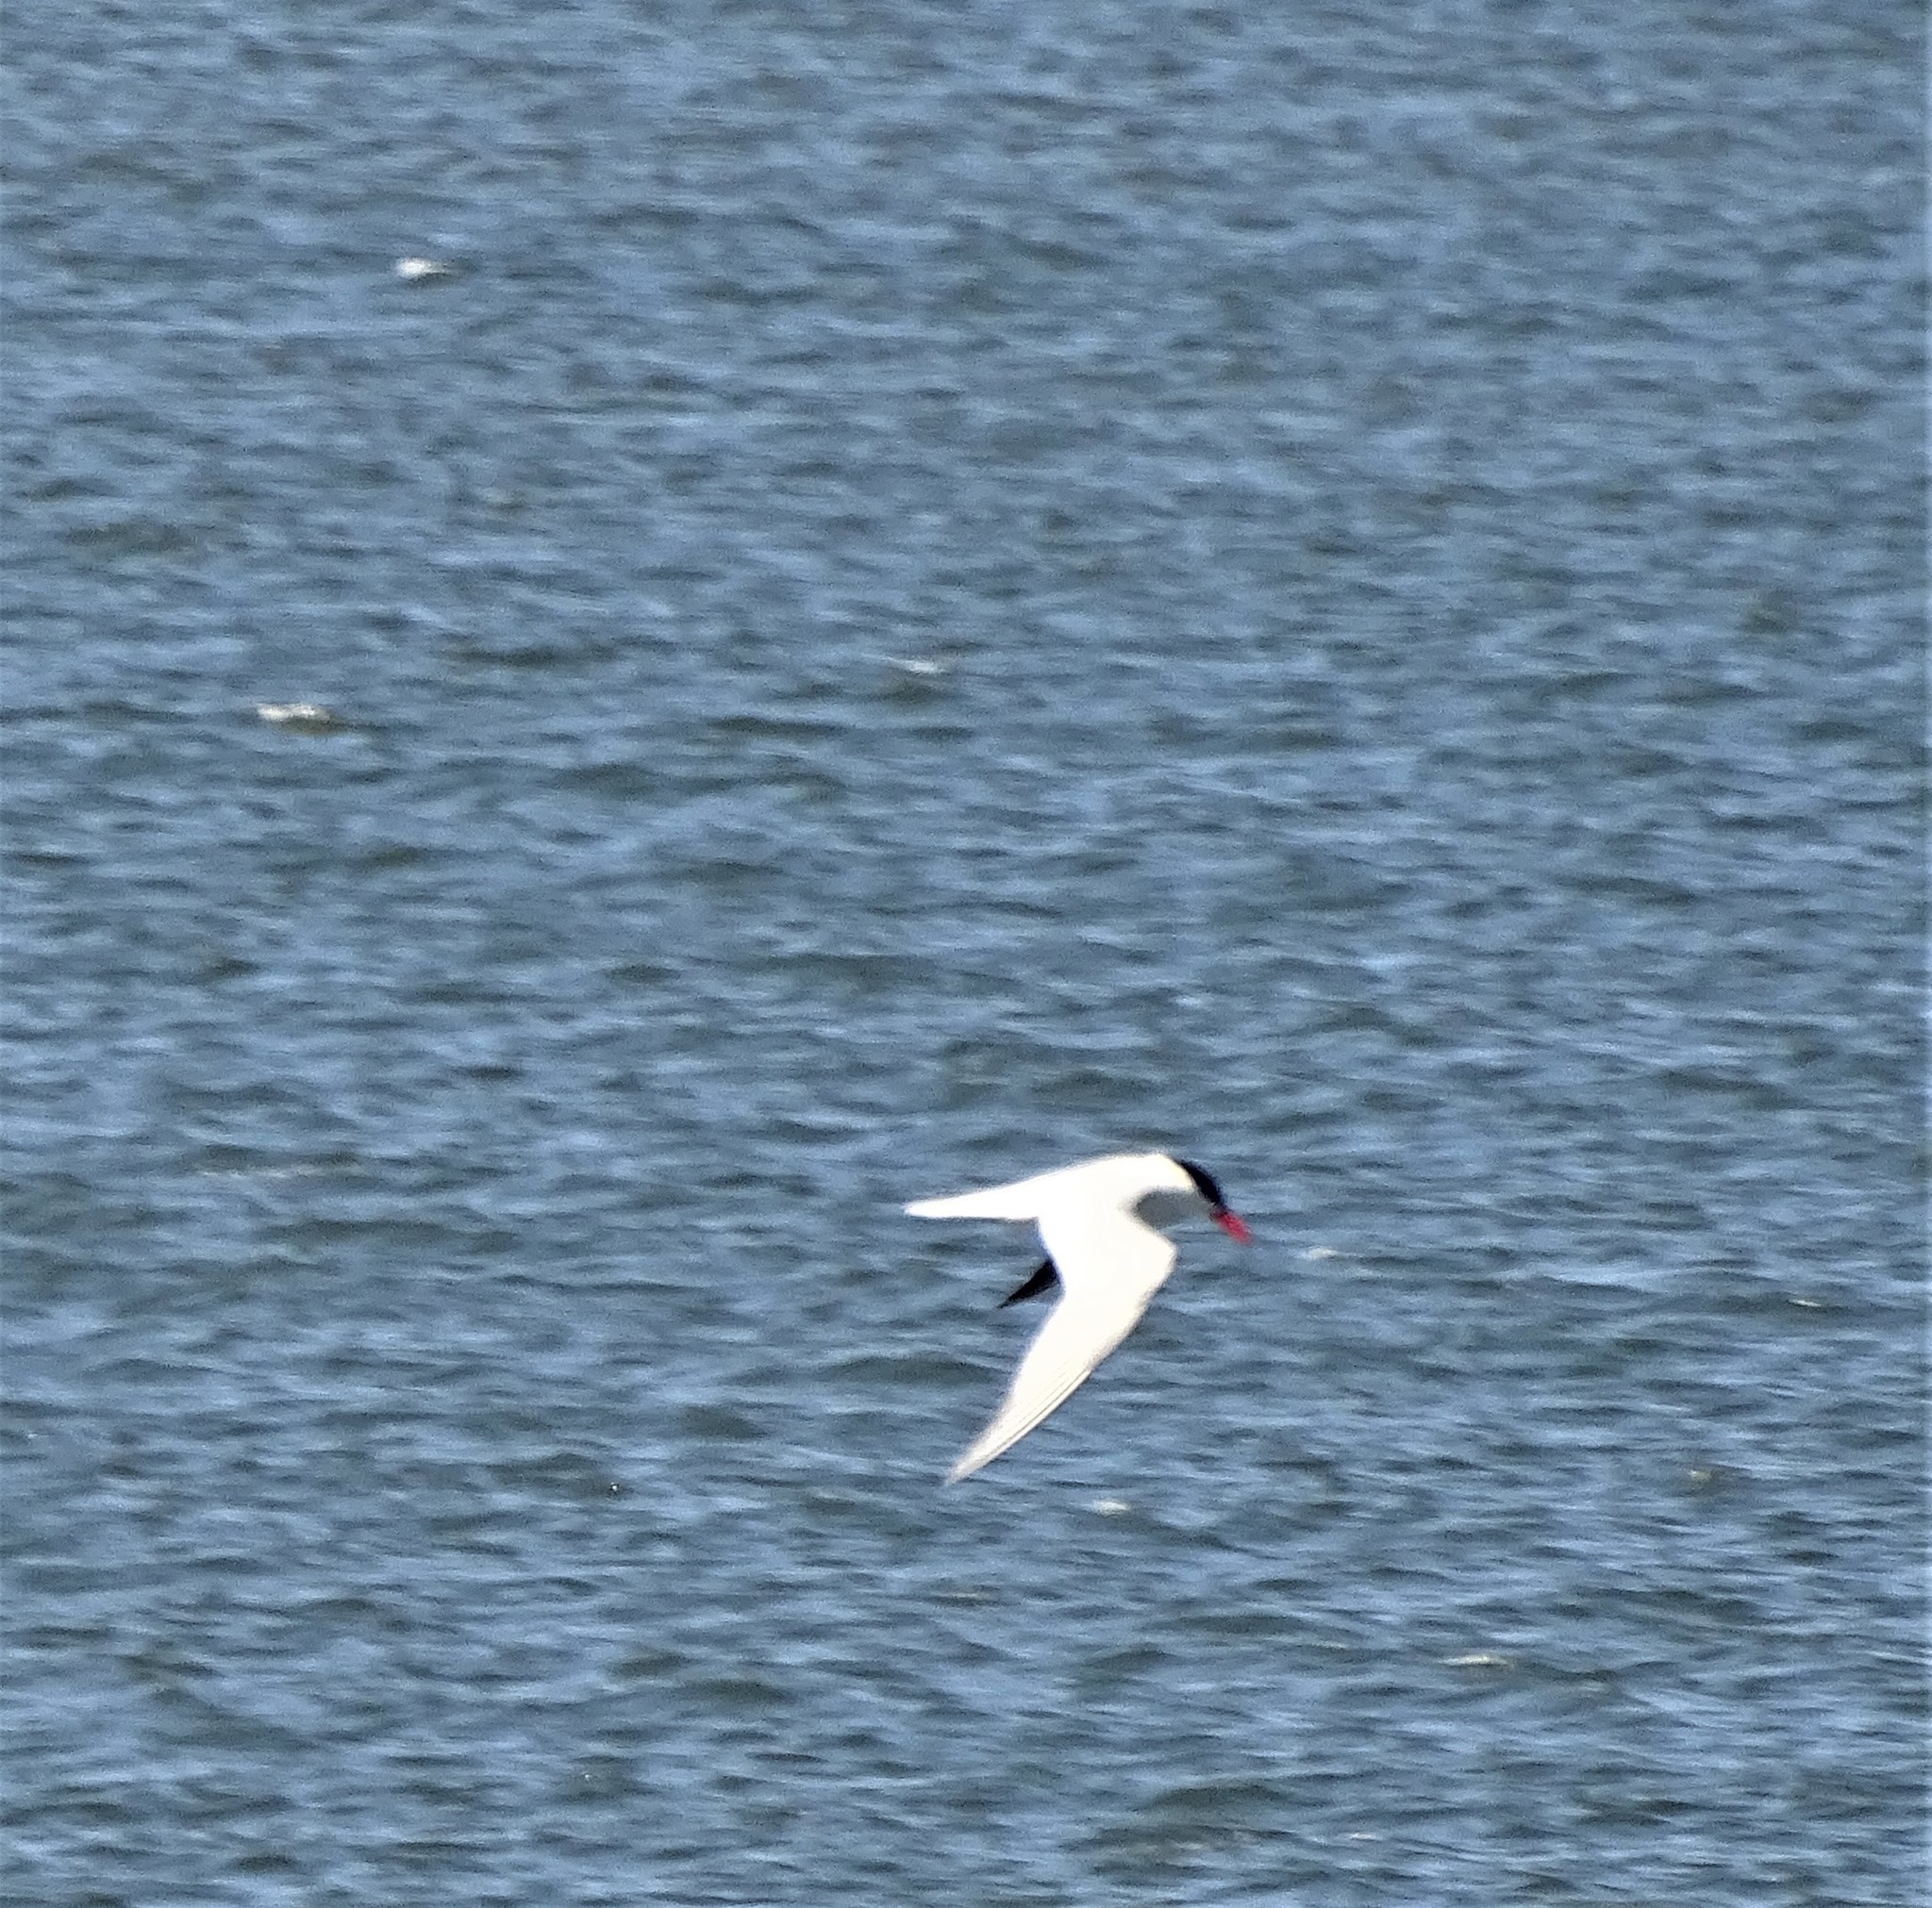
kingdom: Animalia
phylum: Chordata
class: Aves
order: Charadriiformes
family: Laridae
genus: Hydroprogne
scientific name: Hydroprogne caspia
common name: Caspian tern
